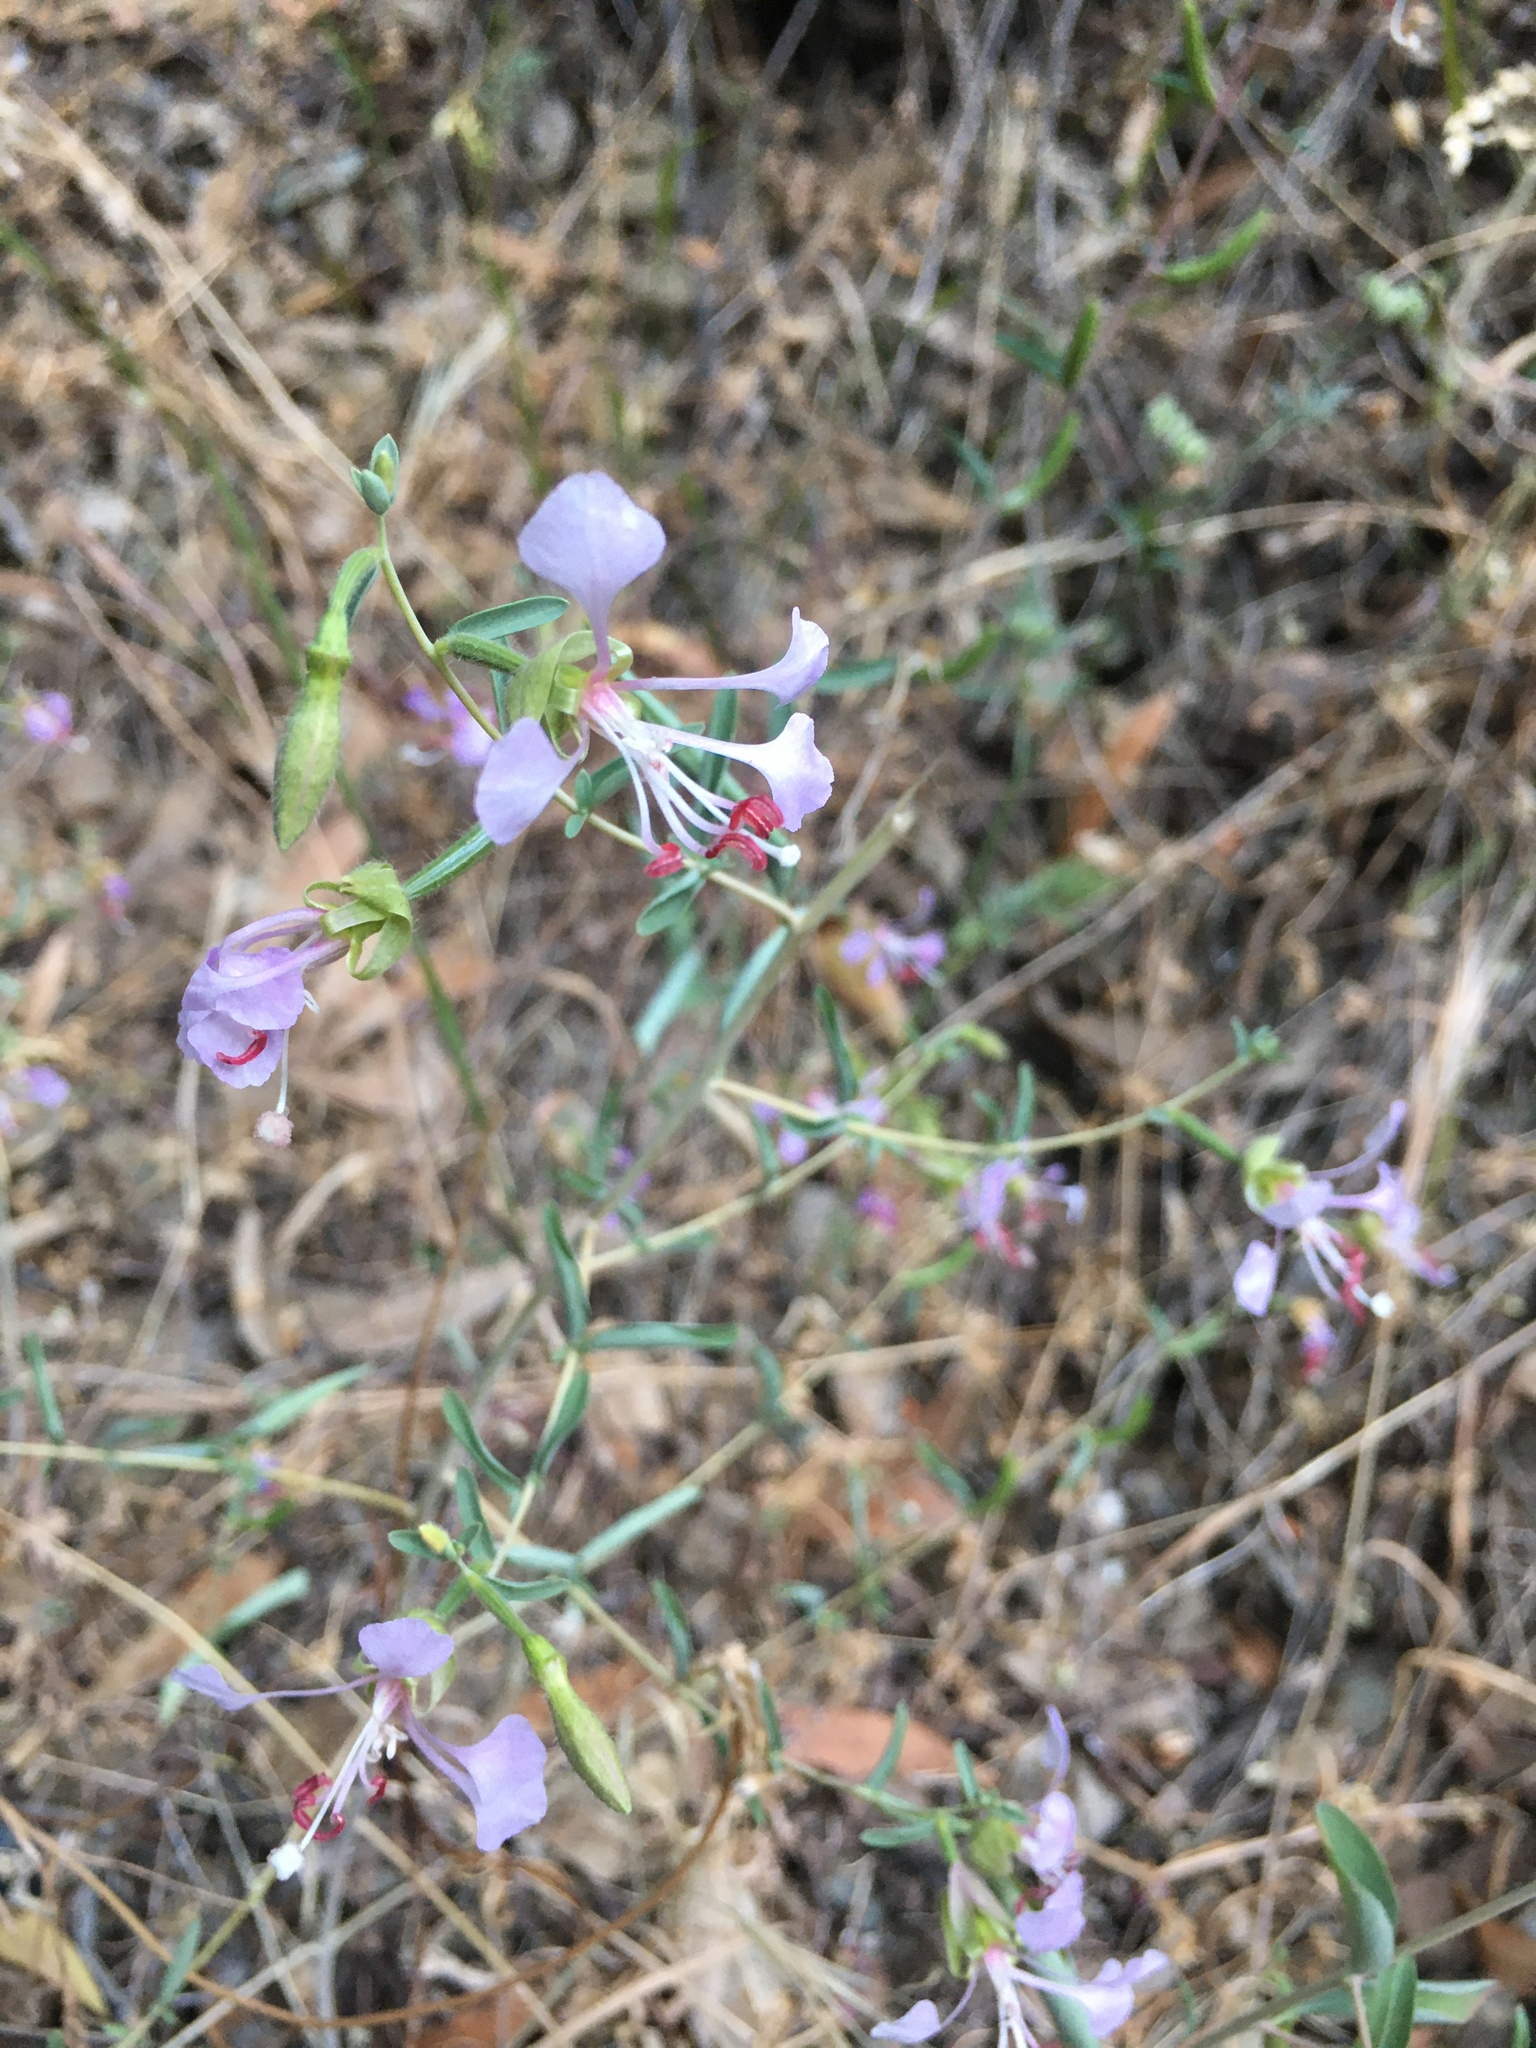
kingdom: Plantae
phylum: Tracheophyta
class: Magnoliopsida
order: Myrtales
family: Onagraceae
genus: Clarkia
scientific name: Clarkia unguiculata
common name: Clarkia
